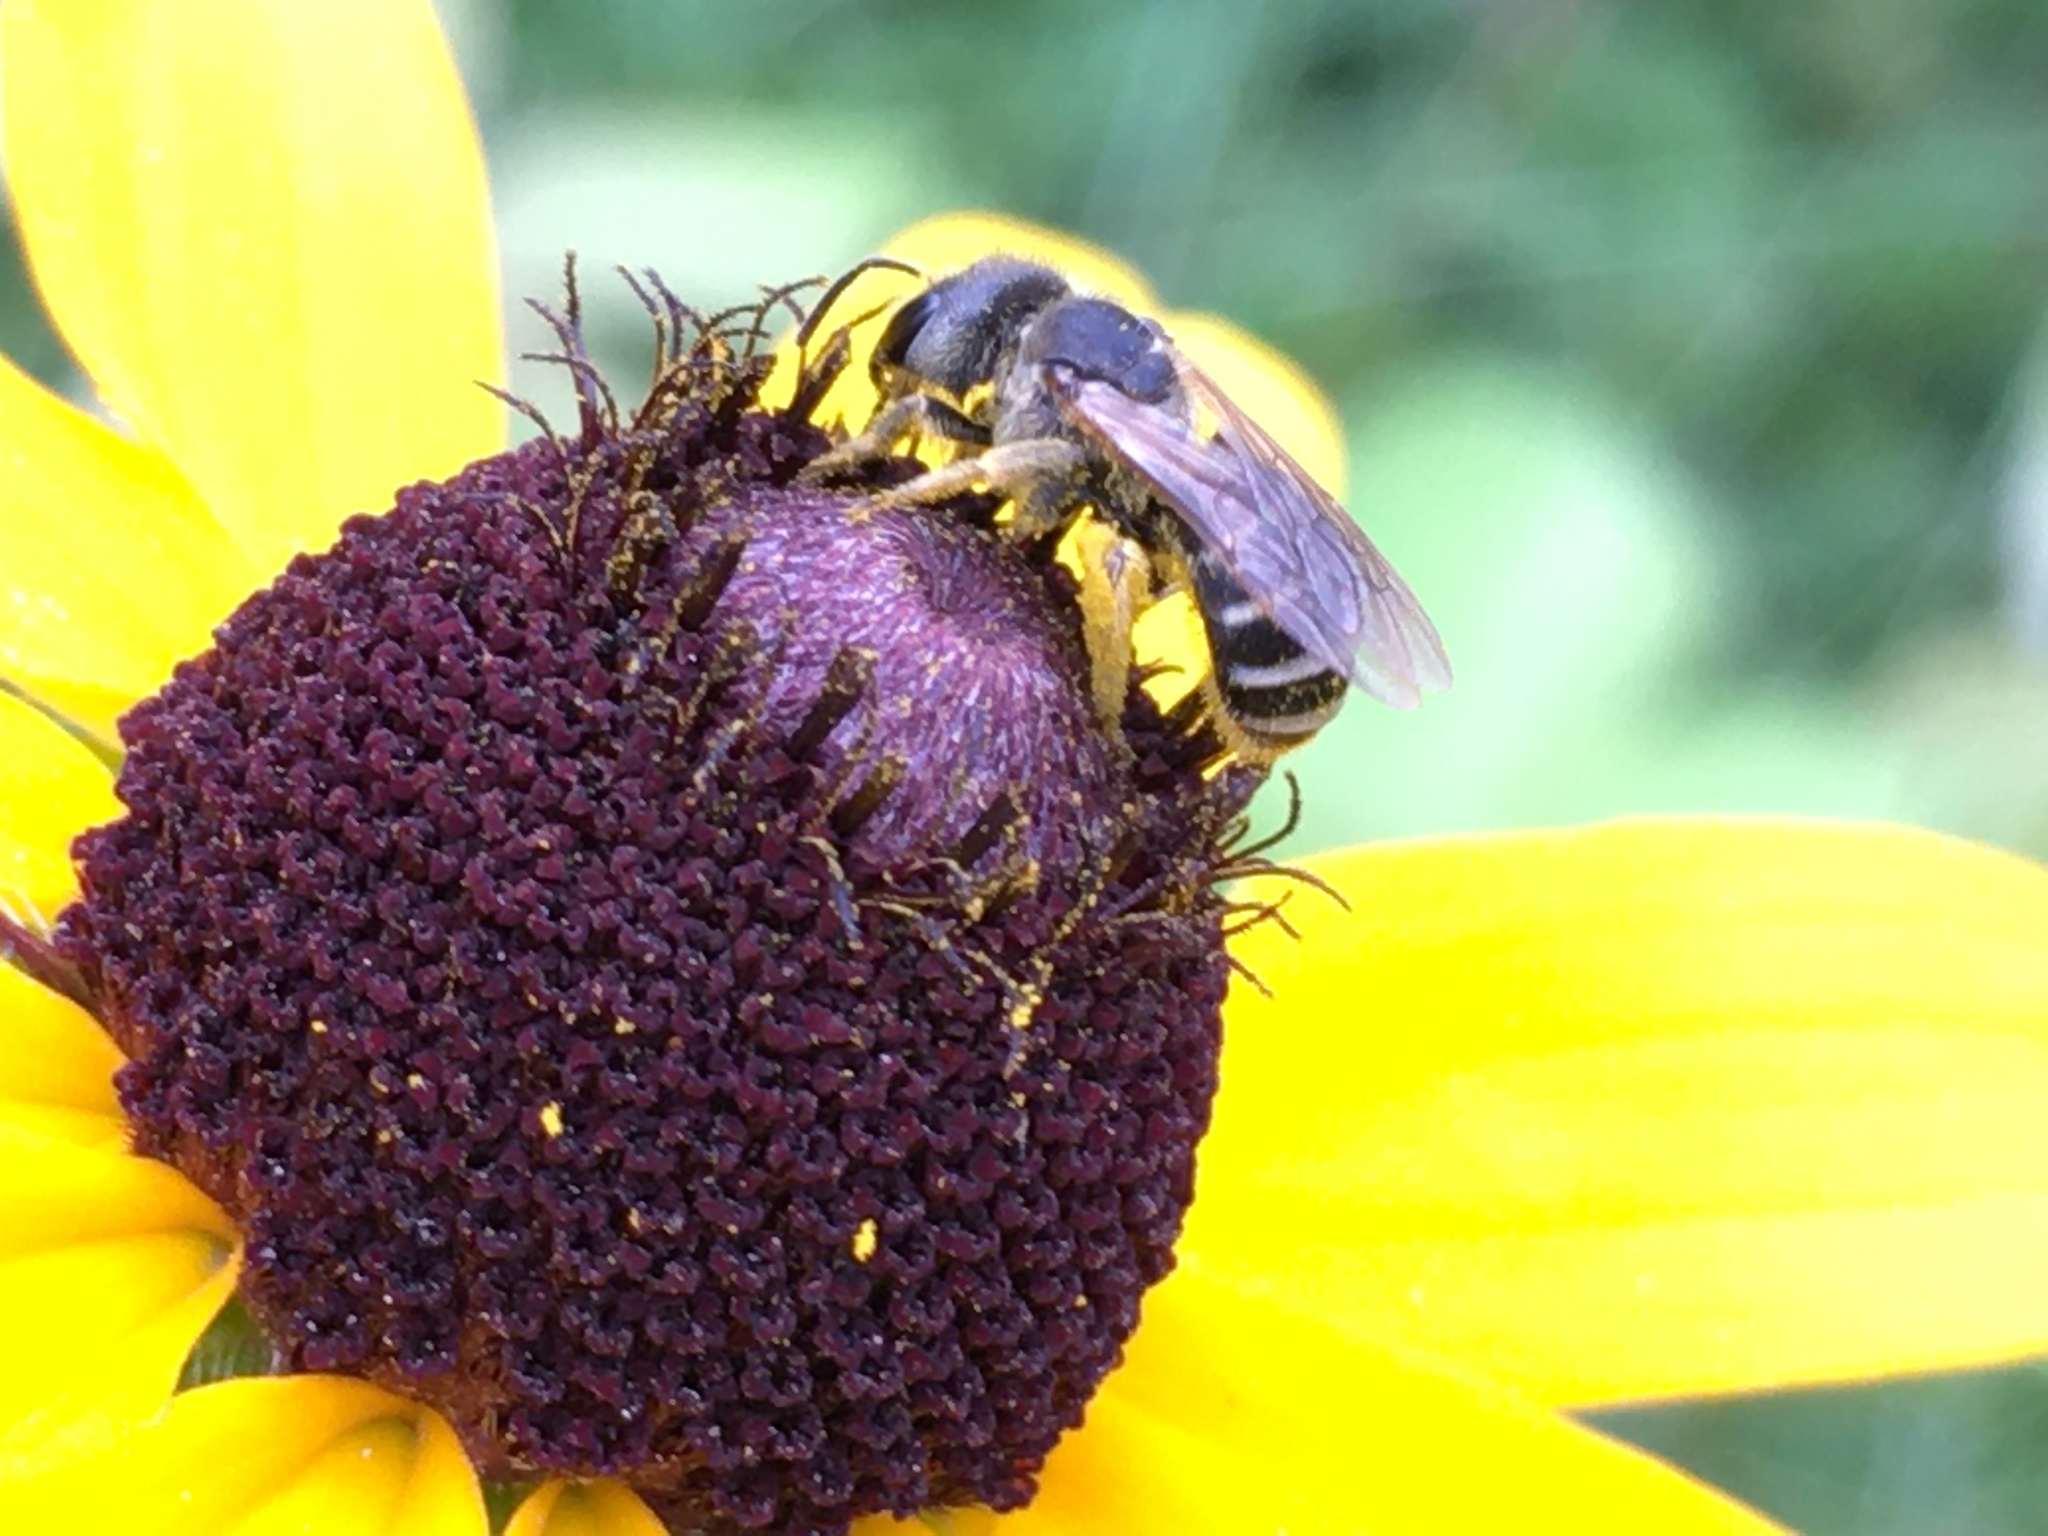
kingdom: Animalia
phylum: Arthropoda
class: Insecta
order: Hymenoptera
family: Halictidae
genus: Halictus
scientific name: Halictus ligatus
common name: Ligated furrow bee
